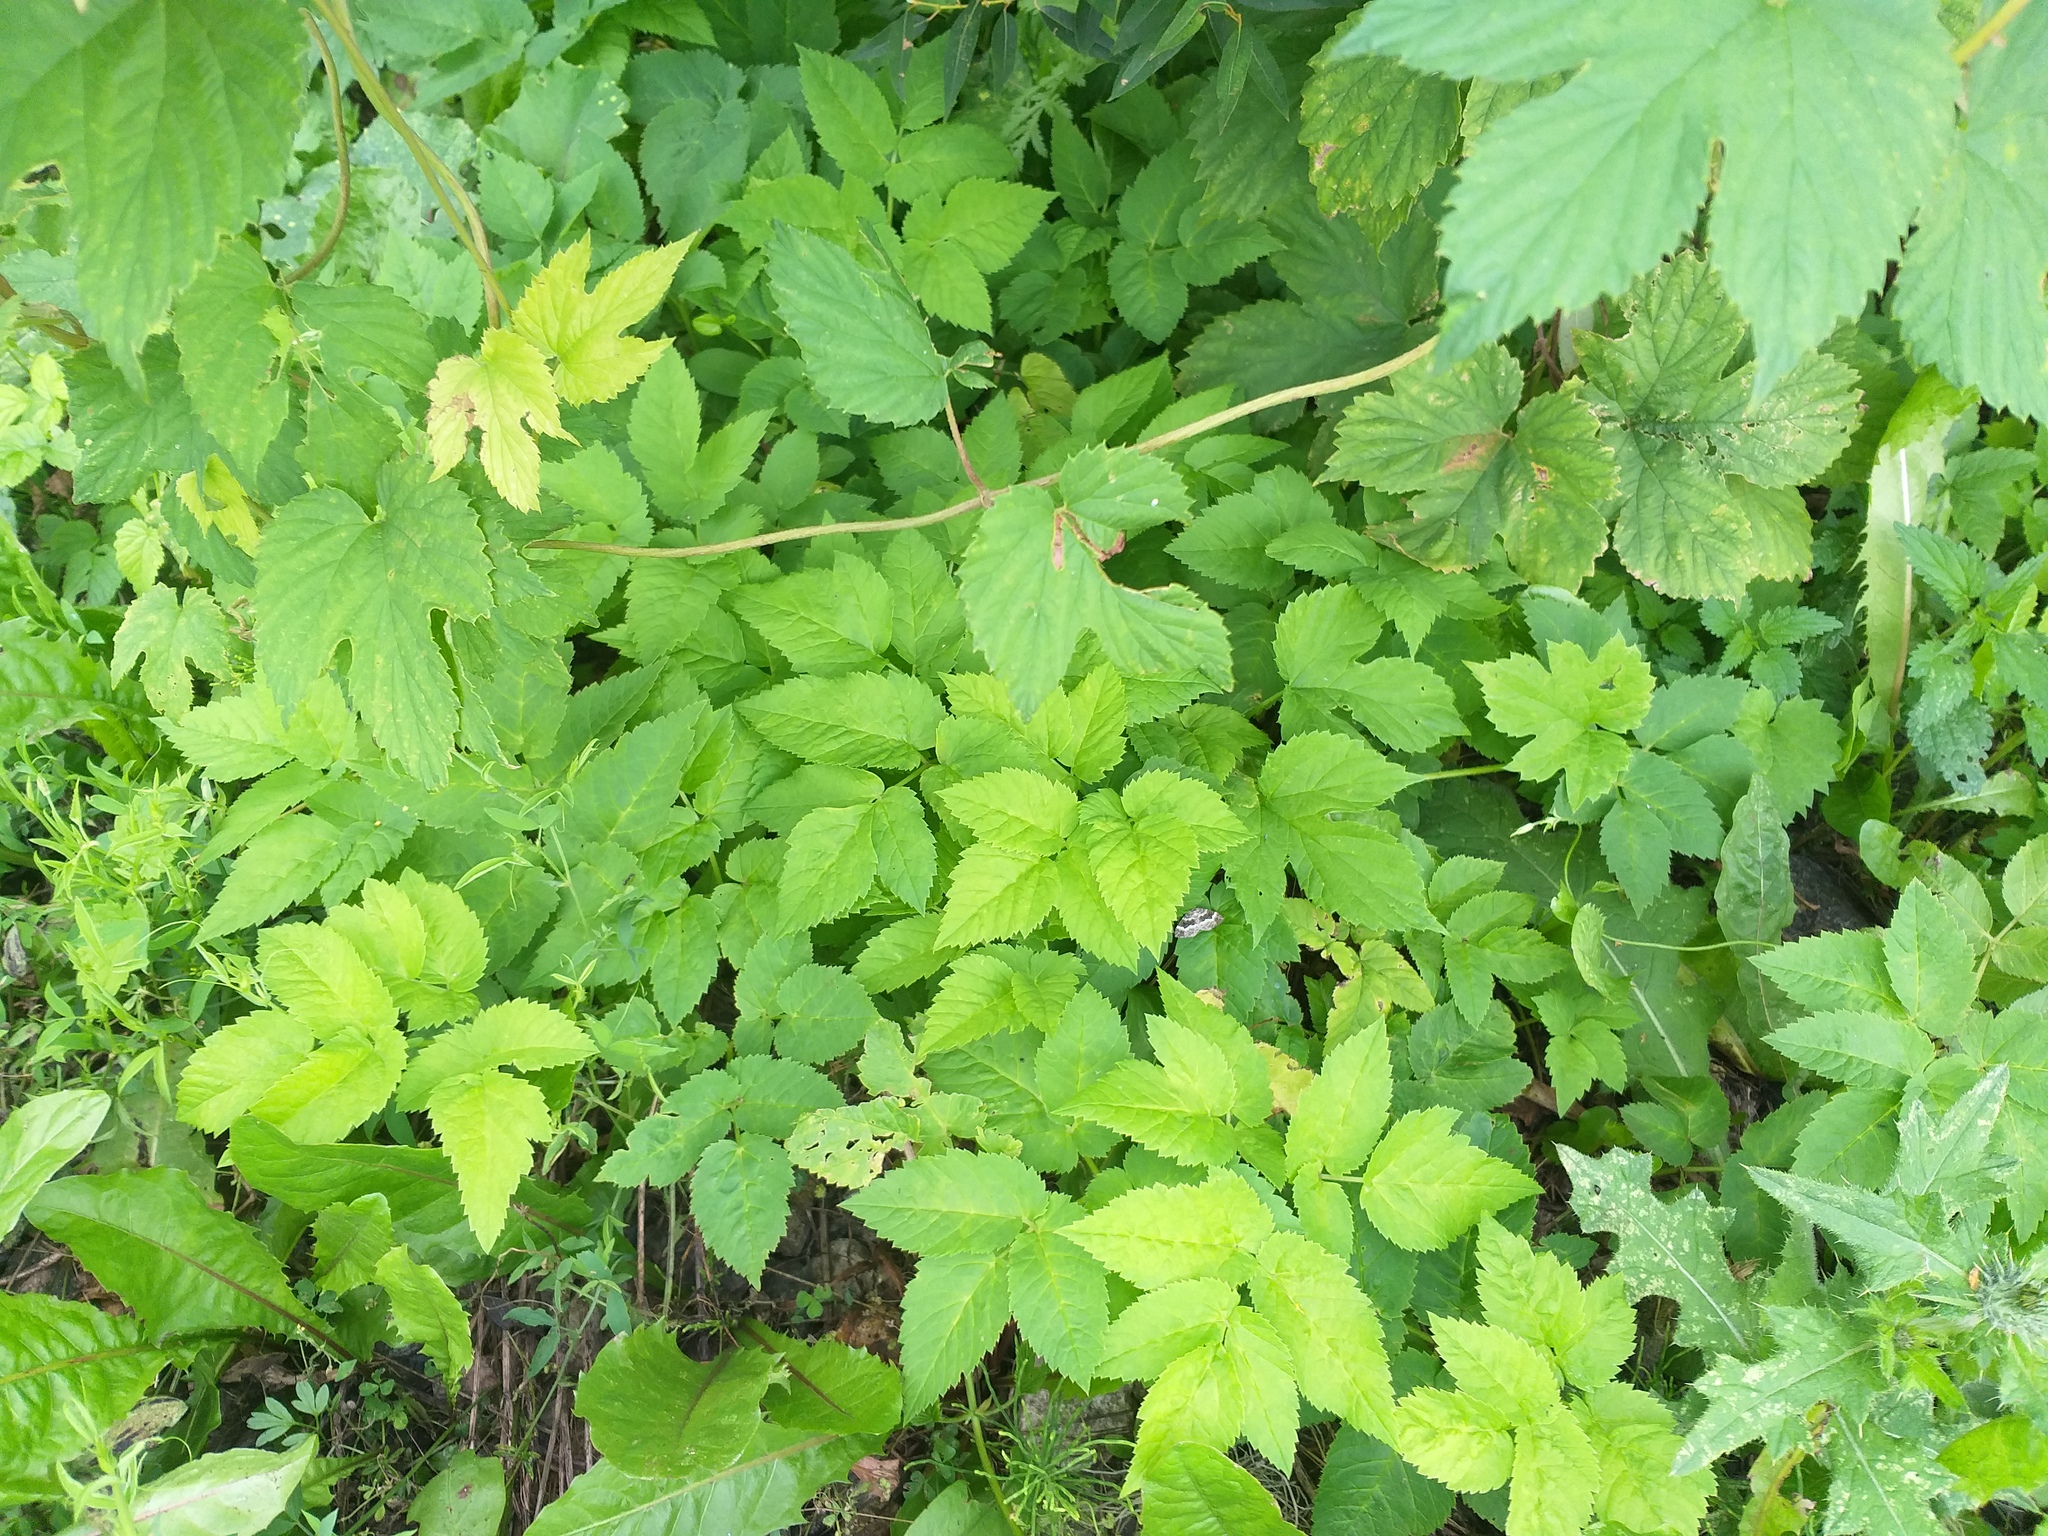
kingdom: Plantae
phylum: Tracheophyta
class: Magnoliopsida
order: Apiales
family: Apiaceae
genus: Aegopodium
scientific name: Aegopodium podagraria
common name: Ground-elder
